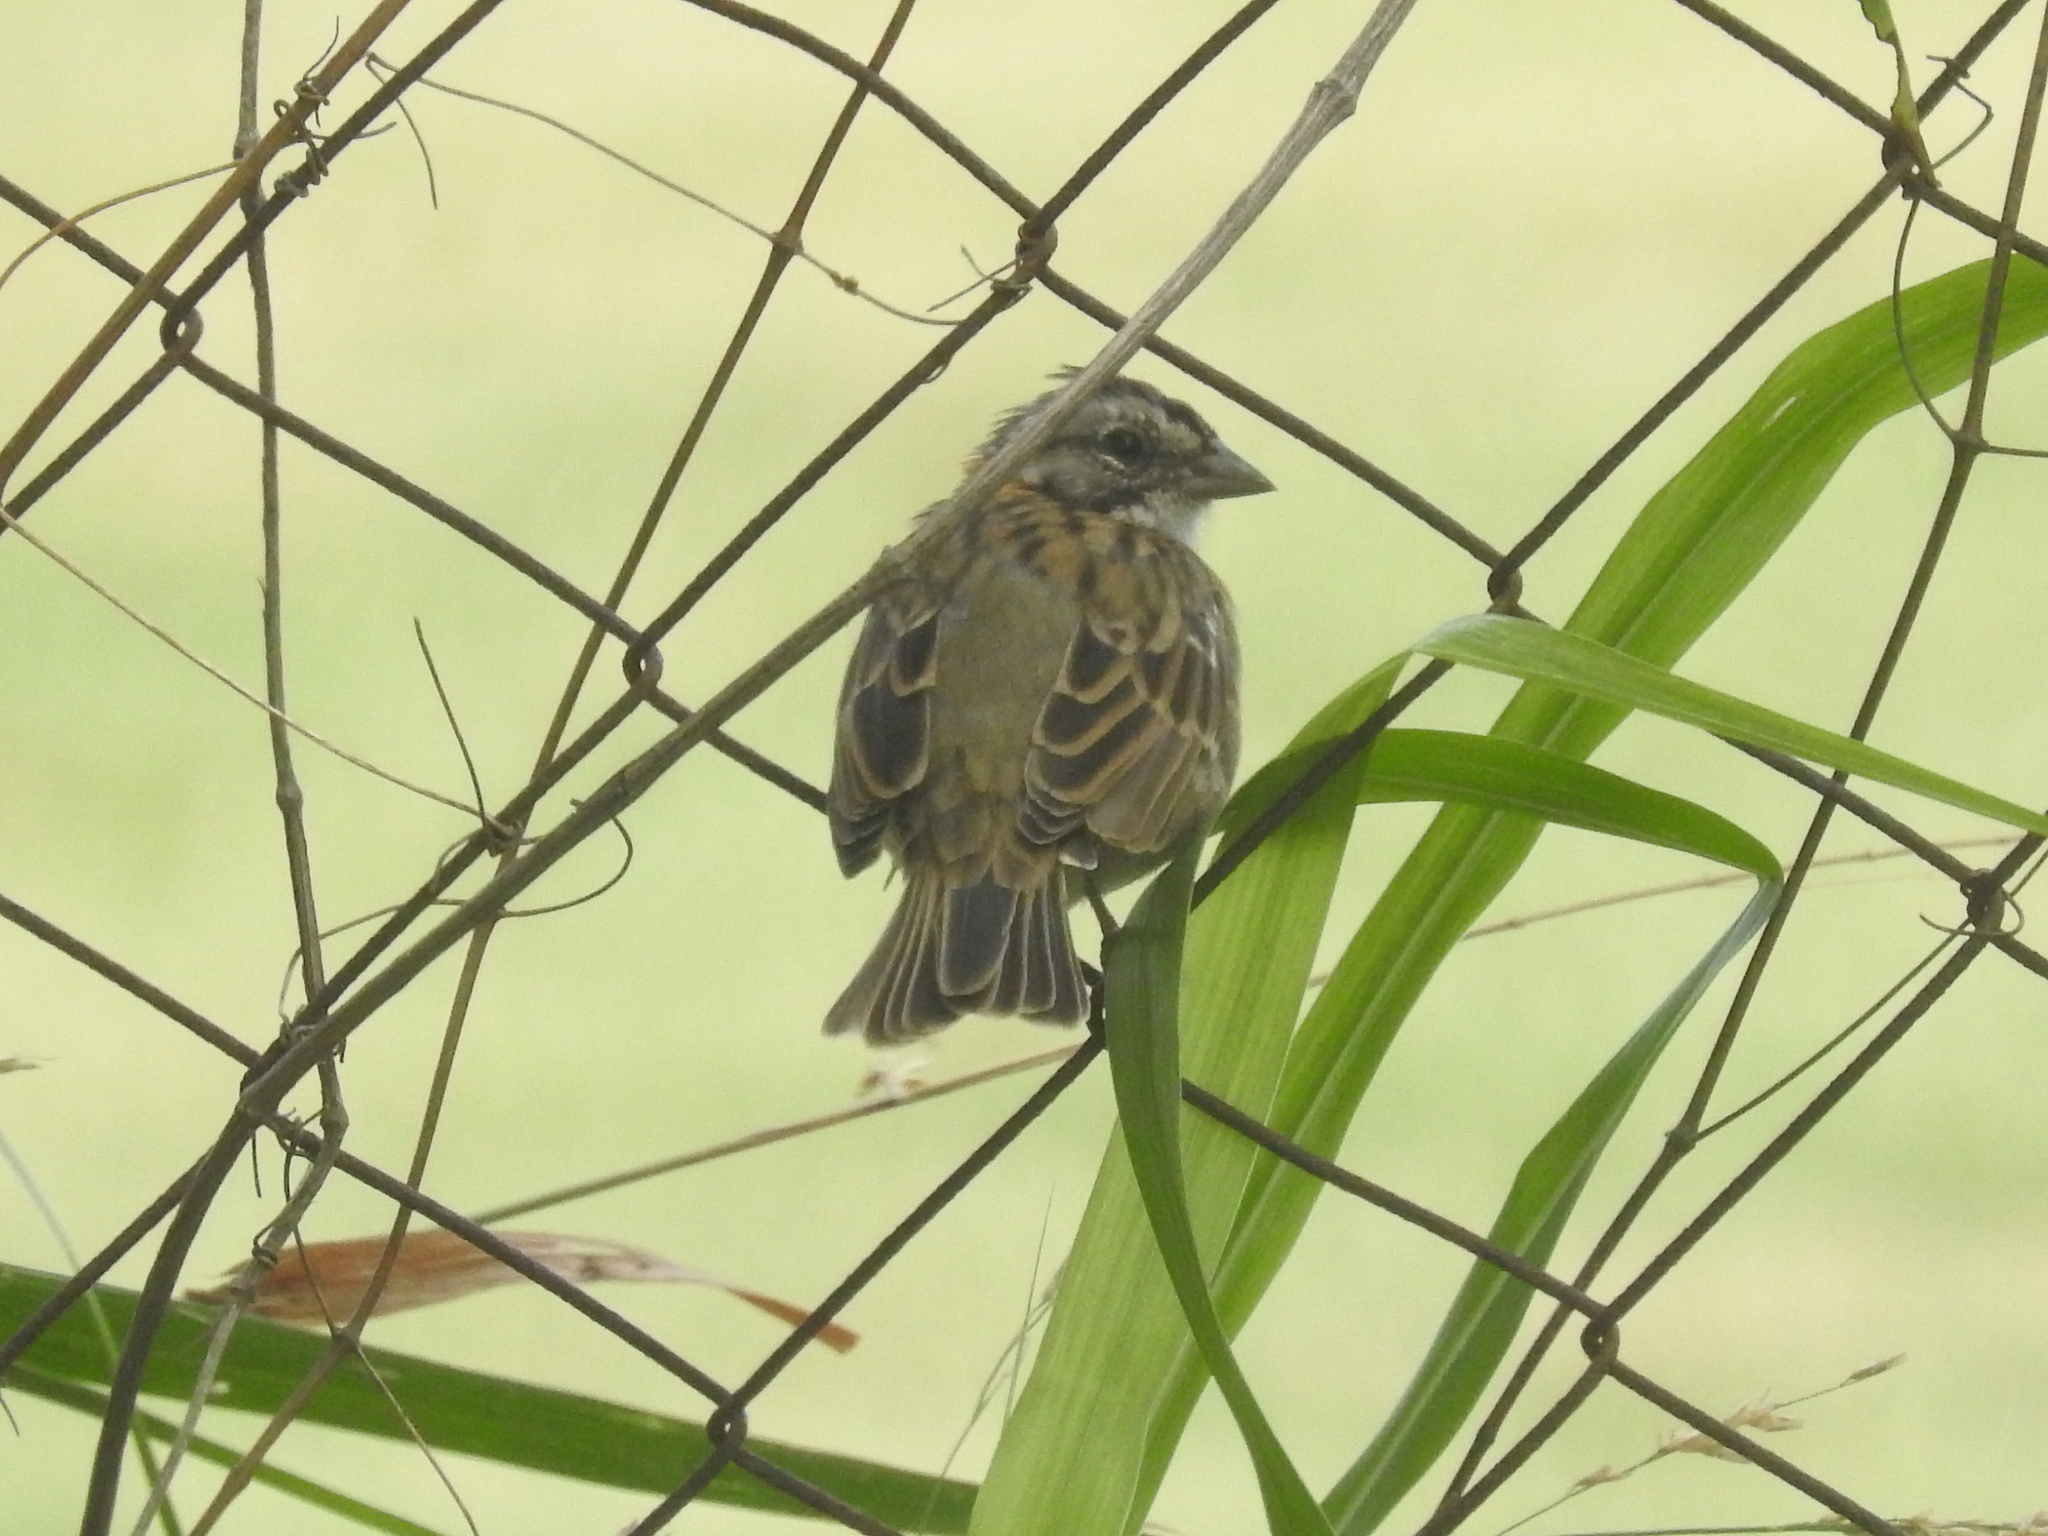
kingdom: Animalia
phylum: Chordata
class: Aves
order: Passeriformes
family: Passerellidae
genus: Zonotrichia
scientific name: Zonotrichia capensis
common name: Rufous-collared sparrow
